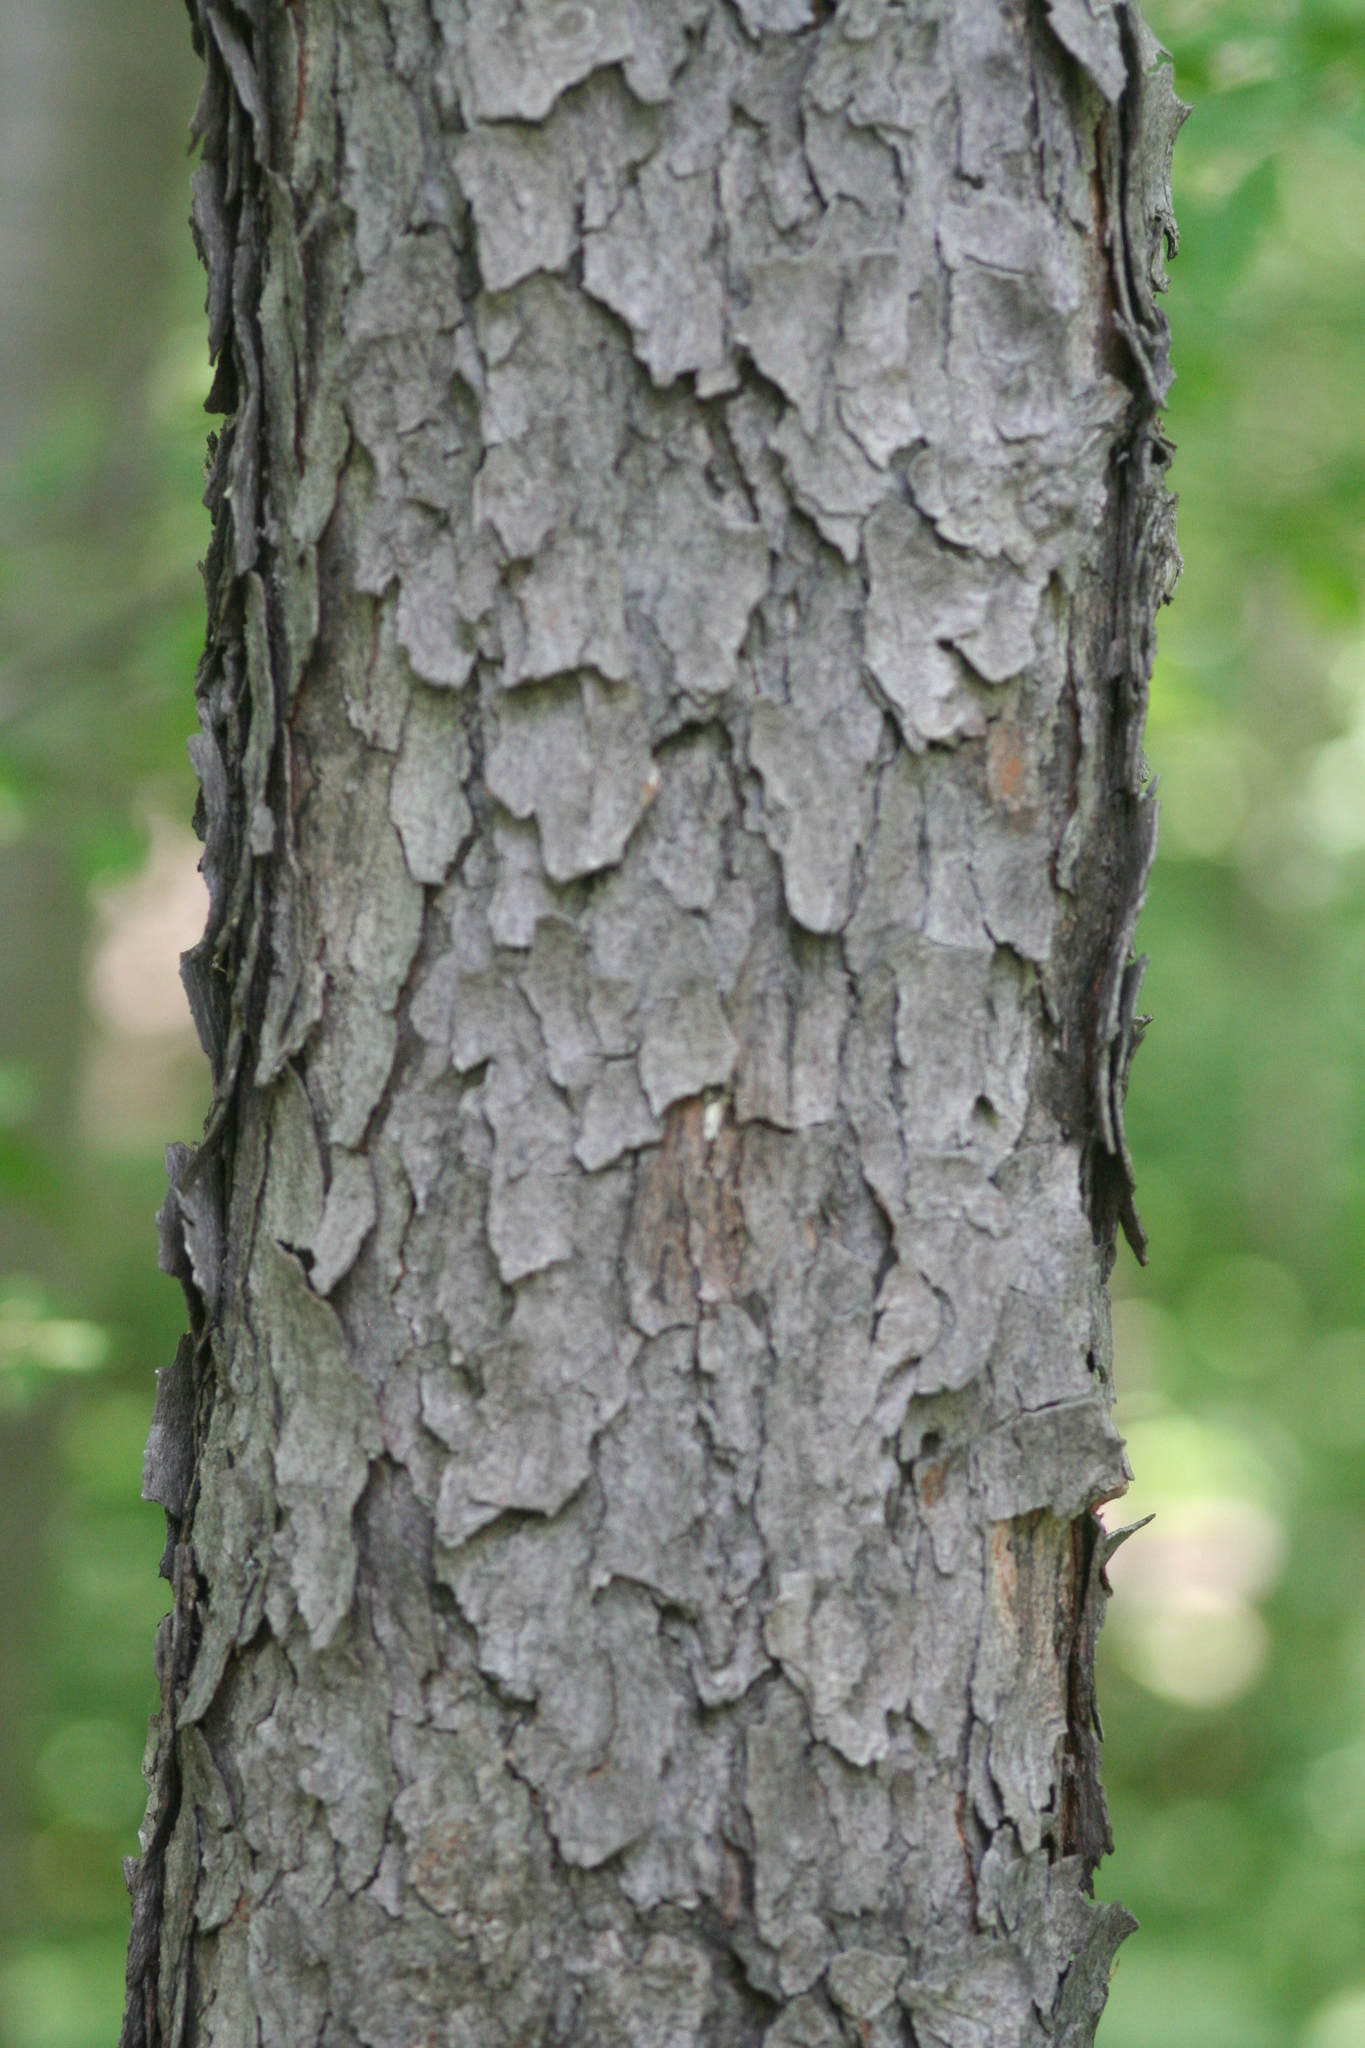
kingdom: Plantae
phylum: Tracheophyta
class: Magnoliopsida
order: Rosales
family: Rosaceae
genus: Prunus
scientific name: Prunus serotina
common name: Black cherry
